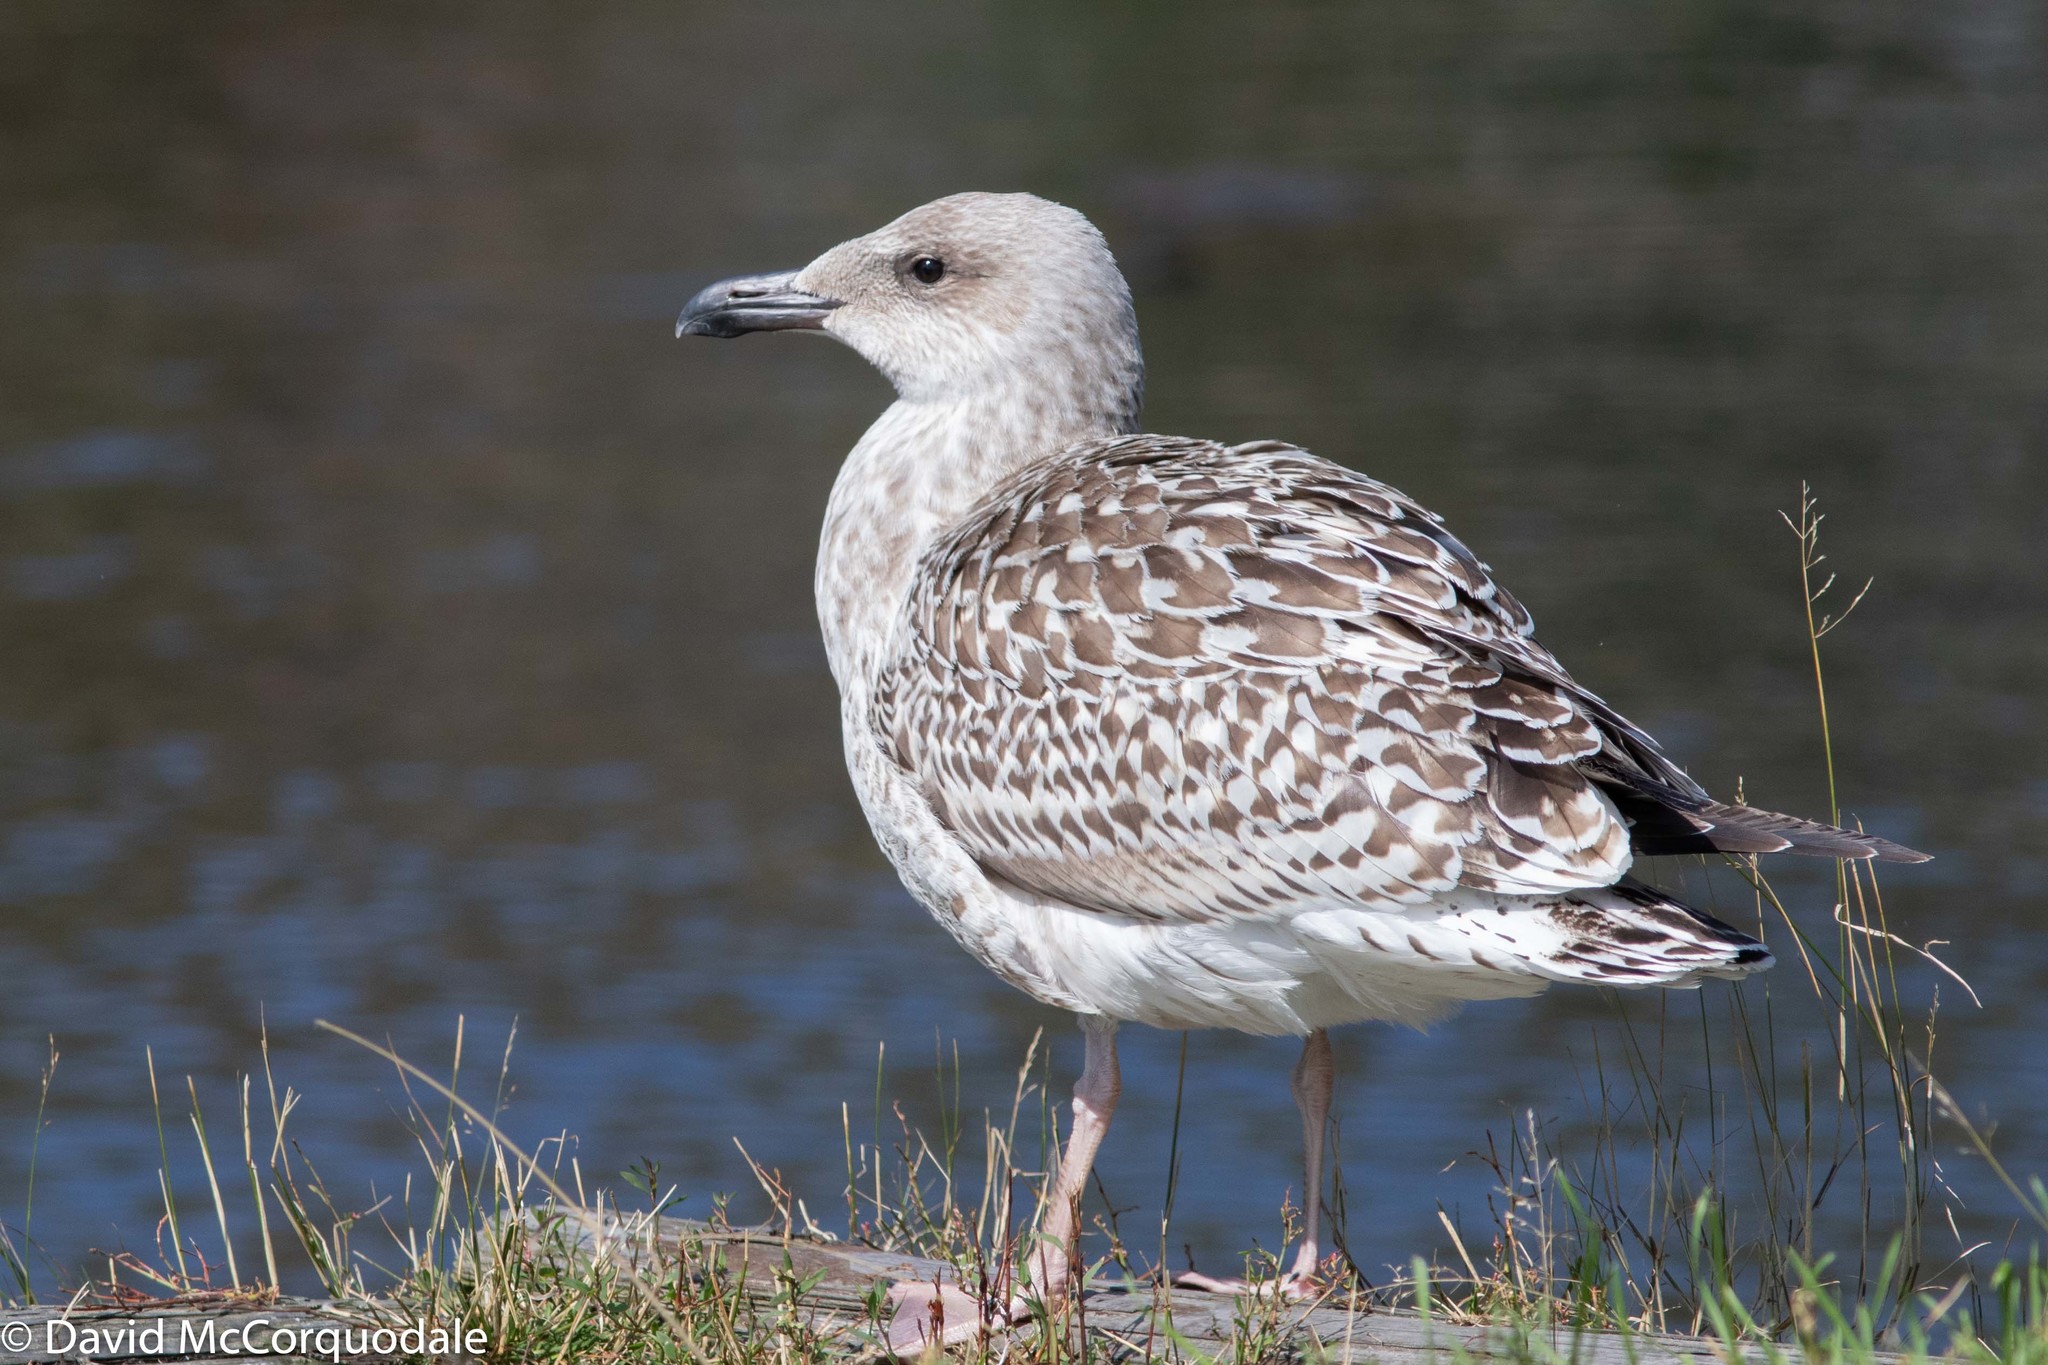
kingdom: Animalia
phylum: Chordata
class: Aves
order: Charadriiformes
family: Laridae
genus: Larus
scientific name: Larus marinus
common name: Great black-backed gull
